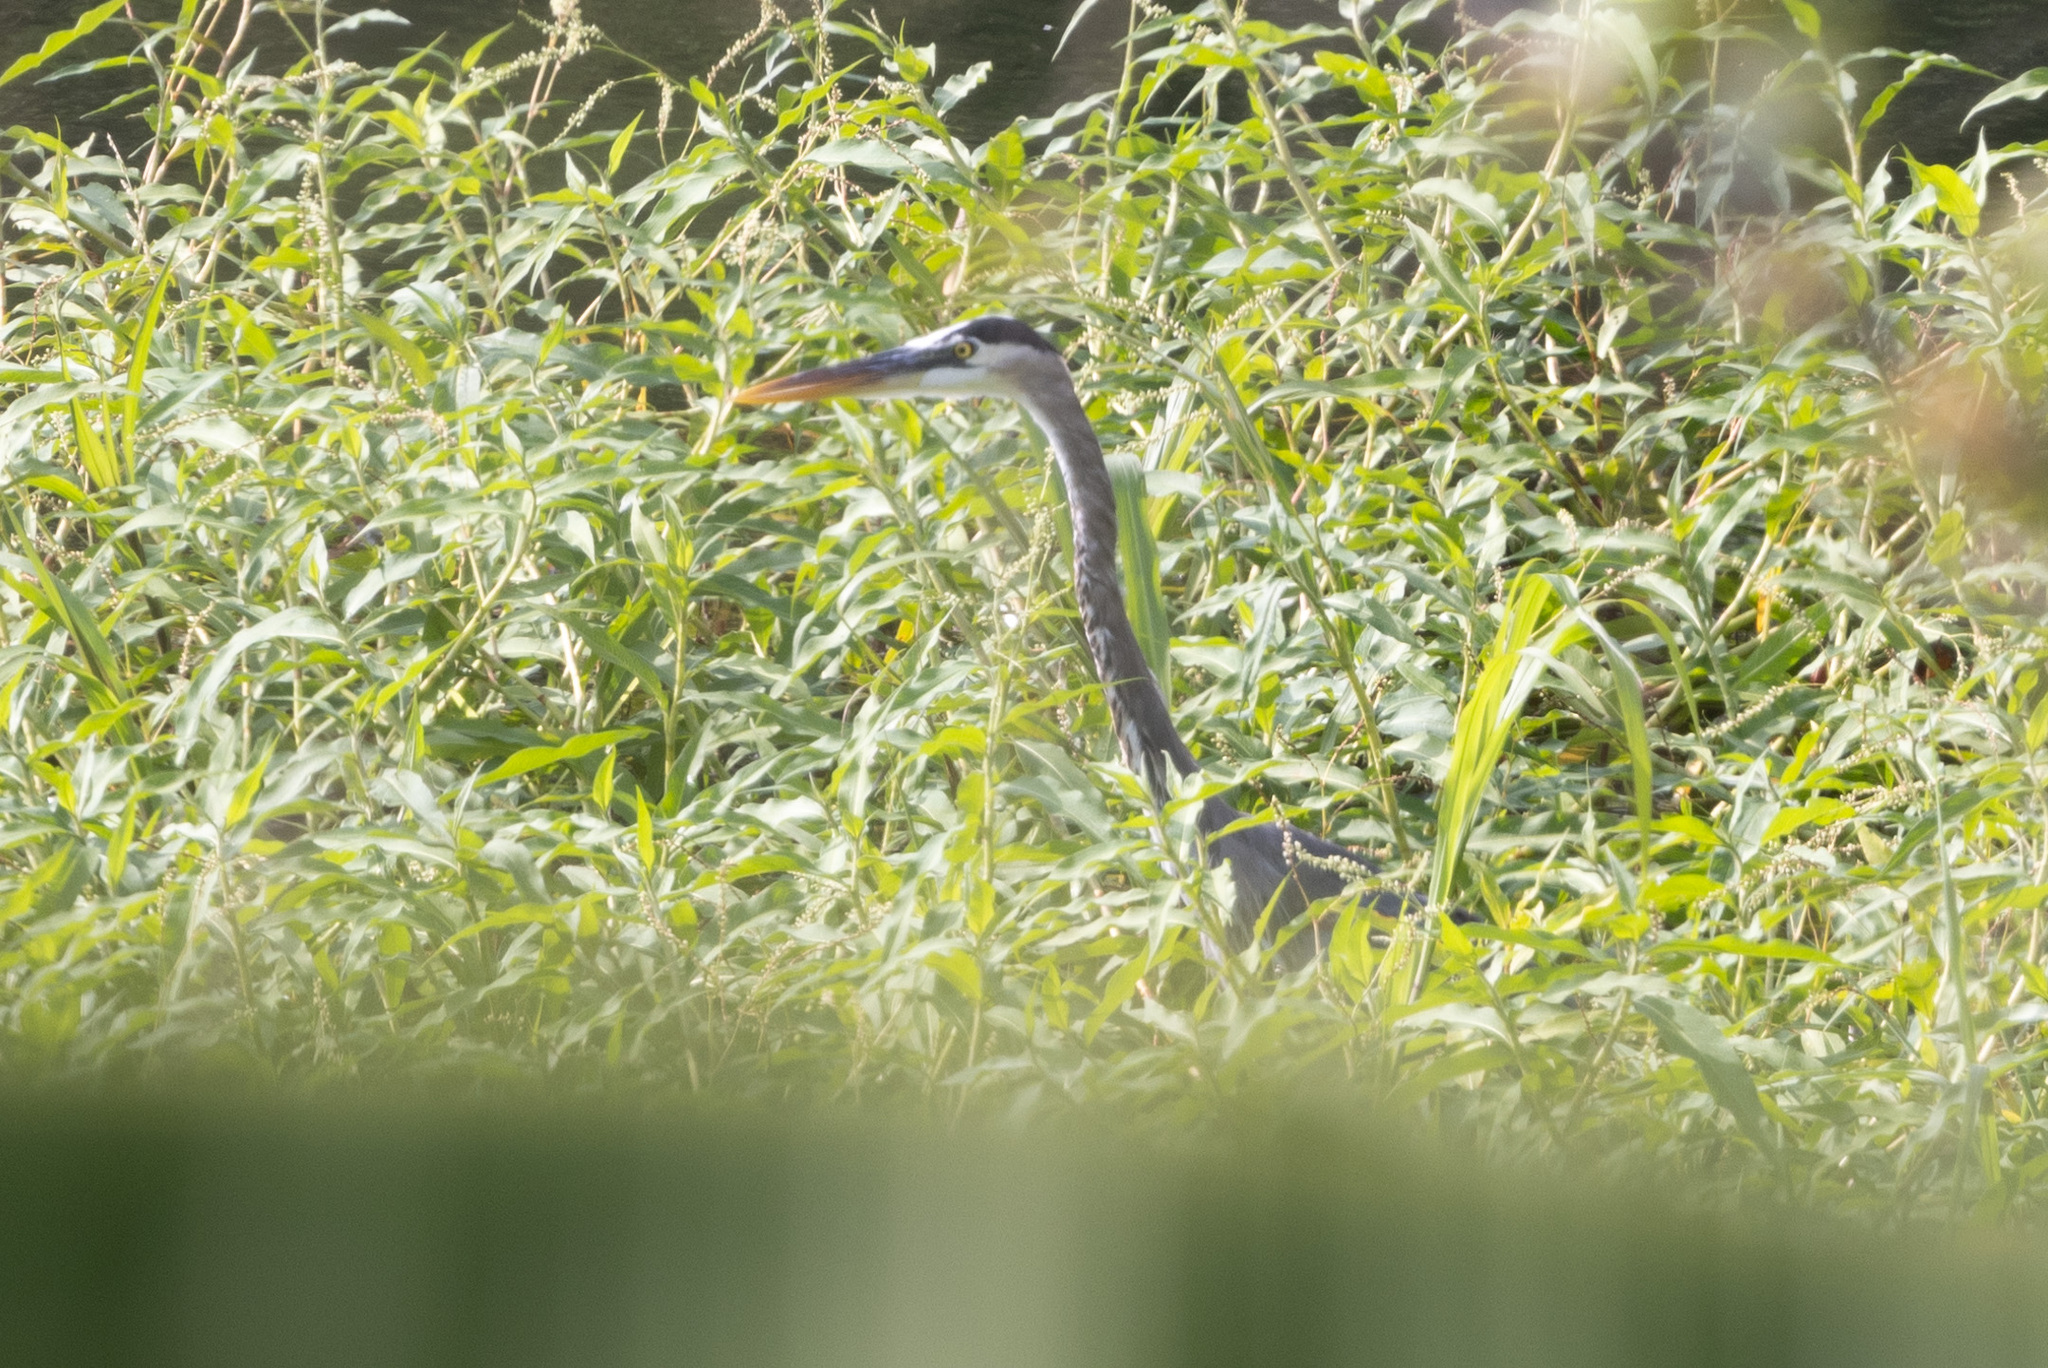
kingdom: Animalia
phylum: Chordata
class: Aves
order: Pelecaniformes
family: Ardeidae
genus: Ardea
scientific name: Ardea herodias
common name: Great blue heron
